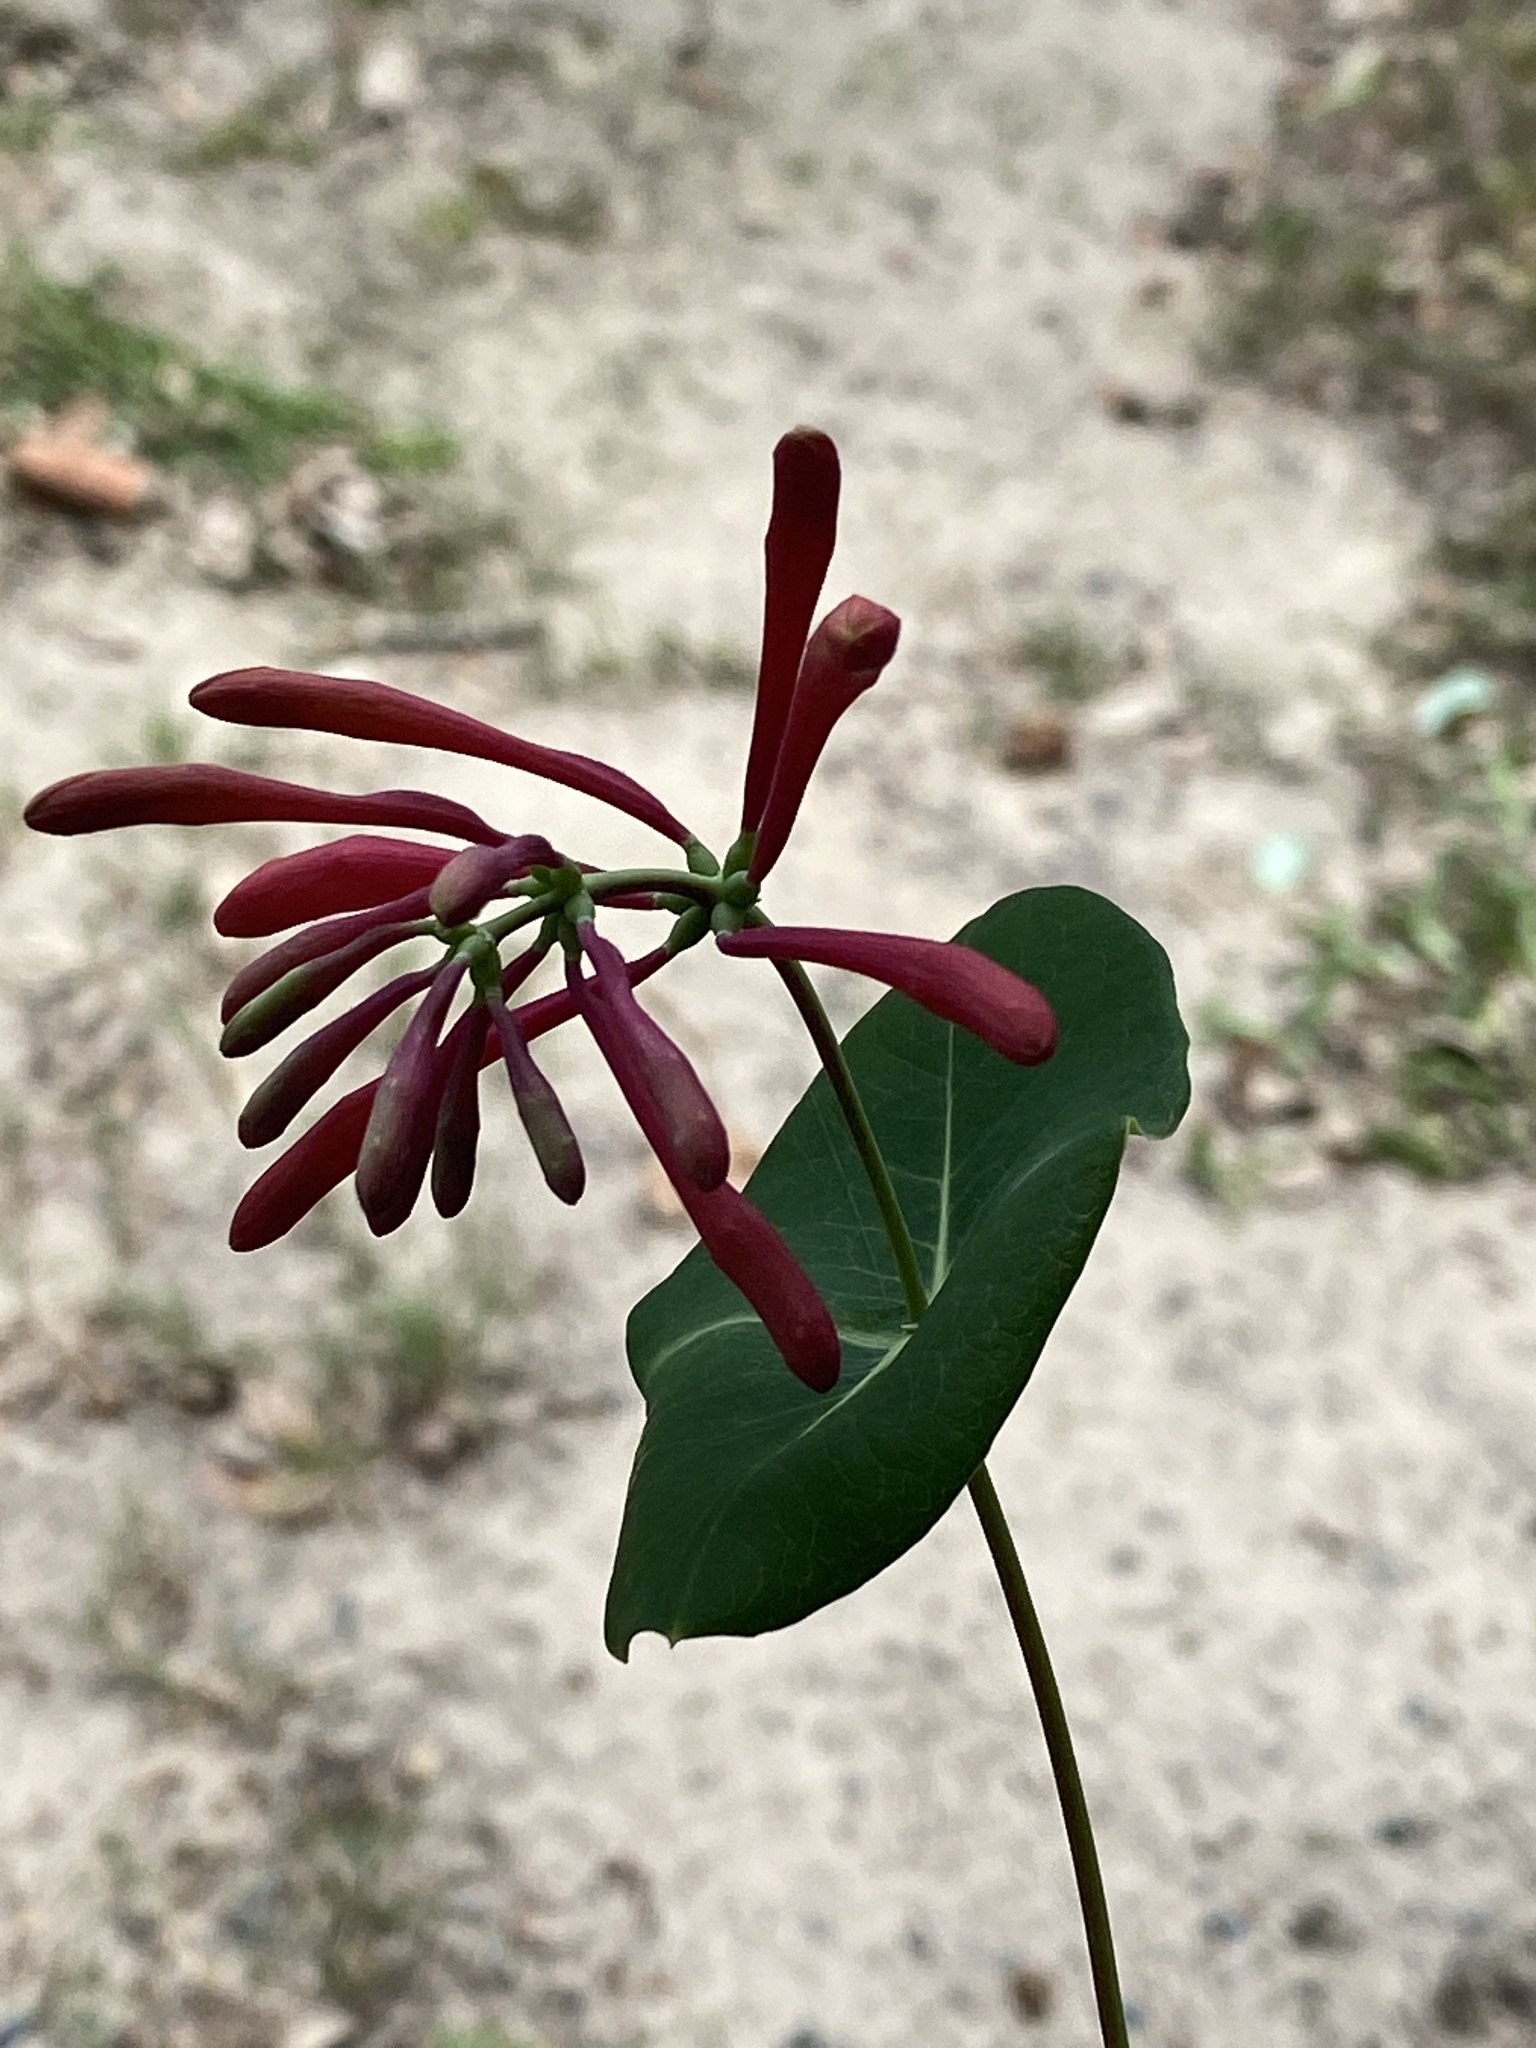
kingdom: Plantae
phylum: Tracheophyta
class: Magnoliopsida
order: Dipsacales
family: Caprifoliaceae
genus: Lonicera
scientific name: Lonicera sempervirens
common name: Coral honeysuckle
